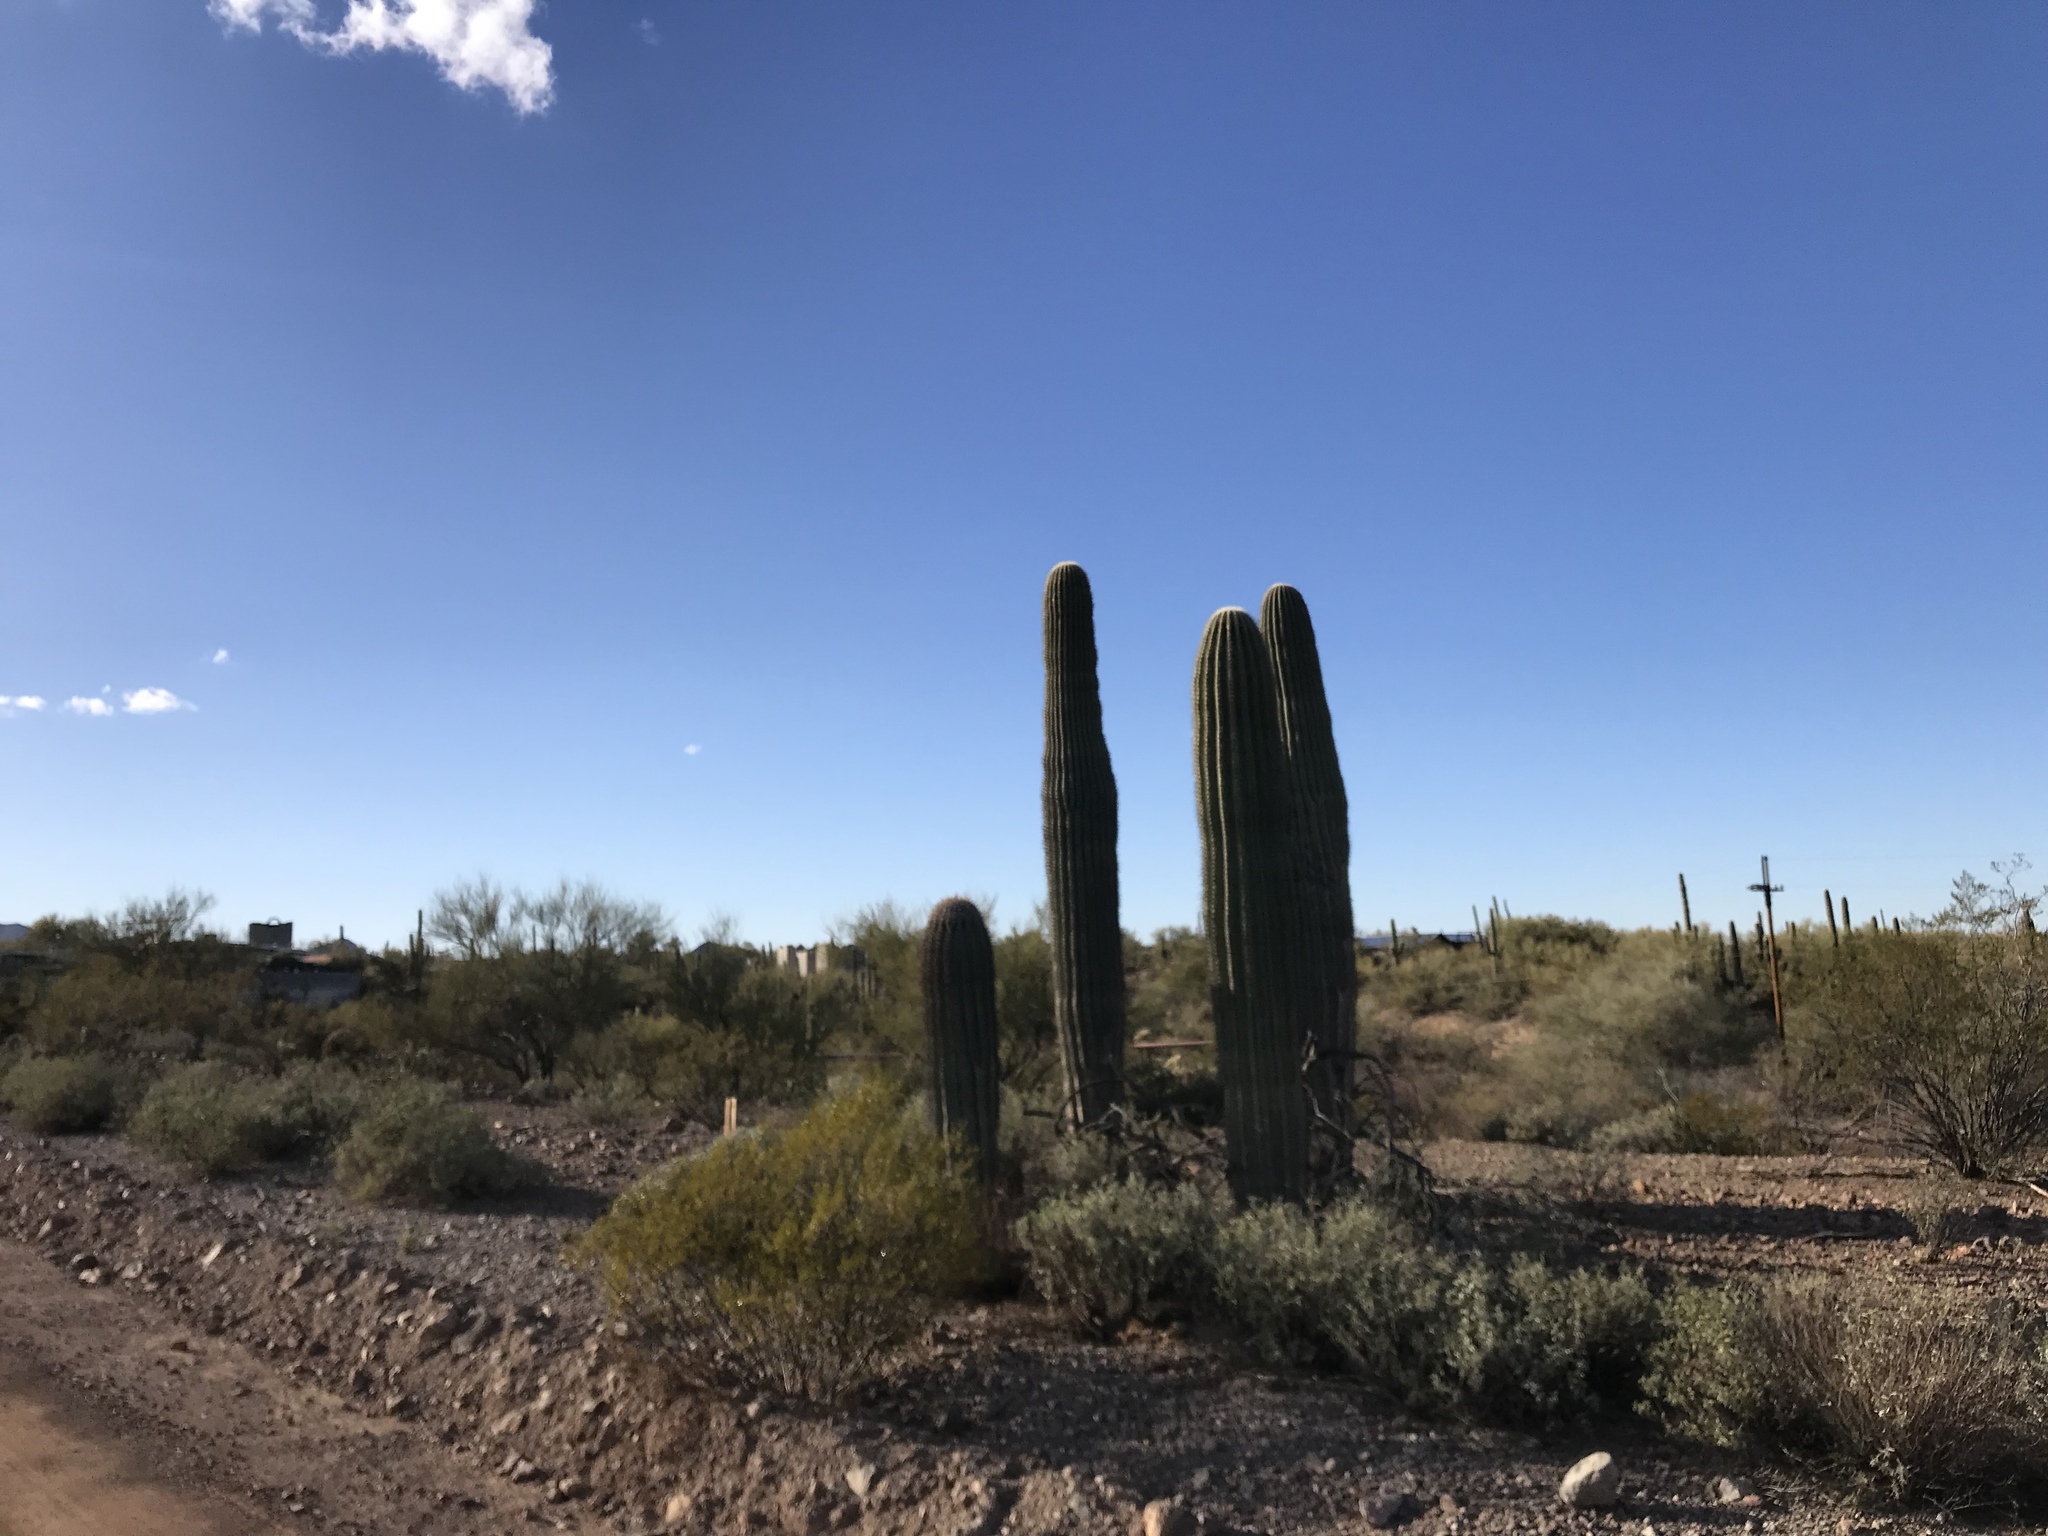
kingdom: Plantae
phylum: Tracheophyta
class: Magnoliopsida
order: Caryophyllales
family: Cactaceae
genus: Carnegiea
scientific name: Carnegiea gigantea
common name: Saguaro
